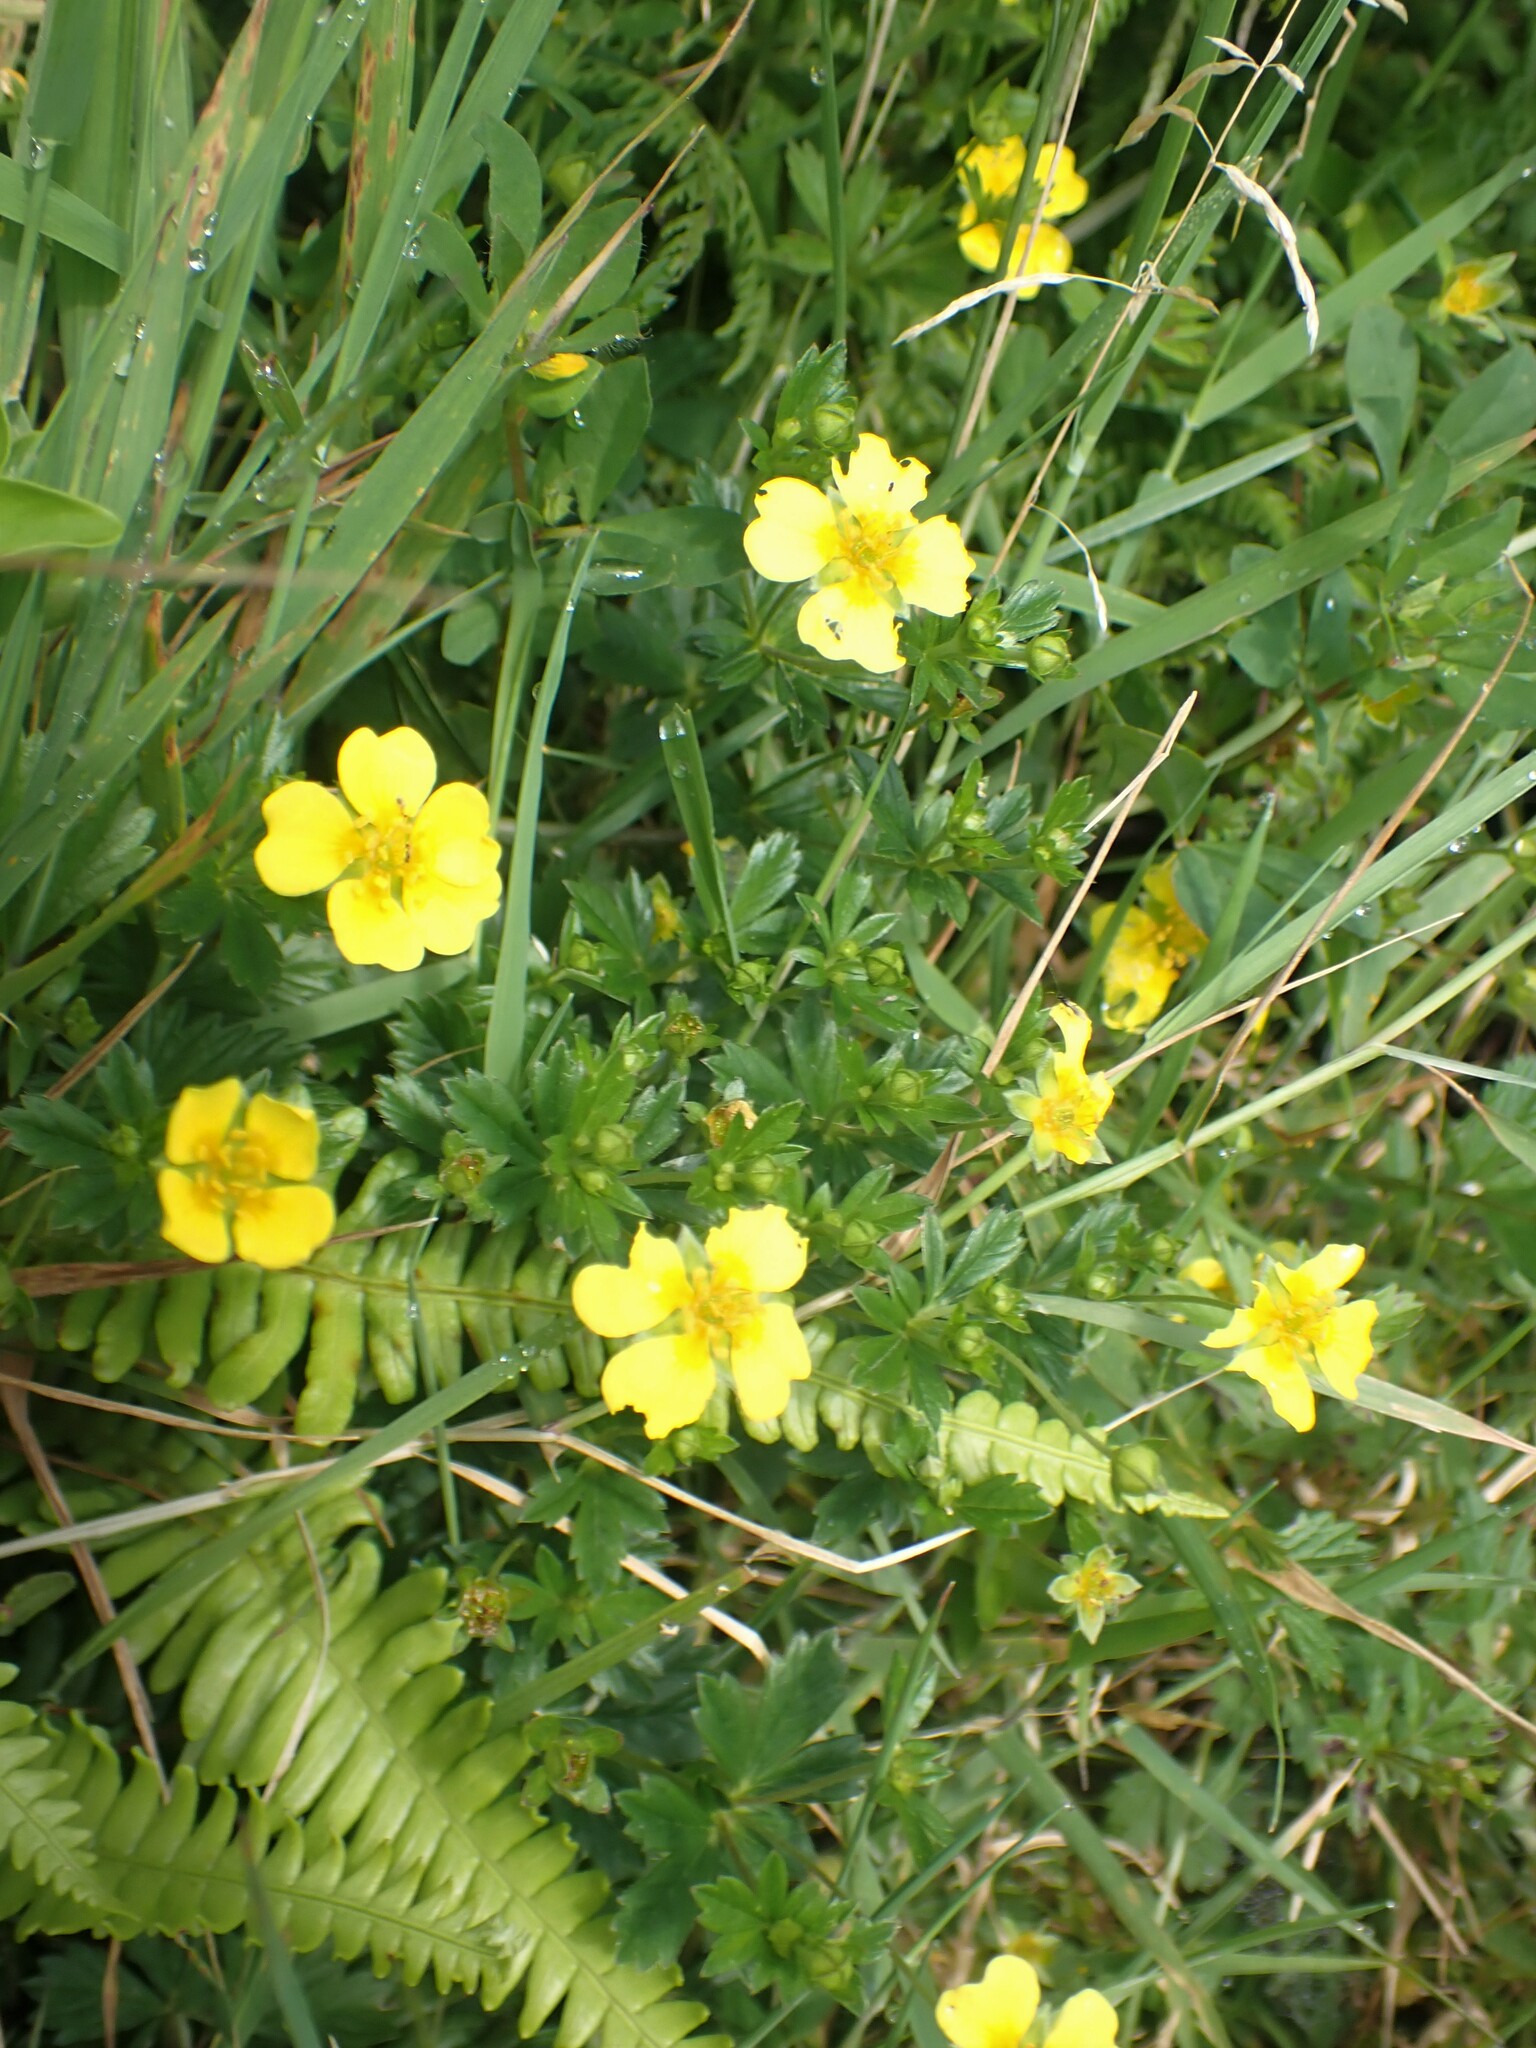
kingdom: Plantae
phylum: Tracheophyta
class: Magnoliopsida
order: Rosales
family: Rosaceae
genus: Potentilla
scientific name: Potentilla erecta
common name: Tormentil
